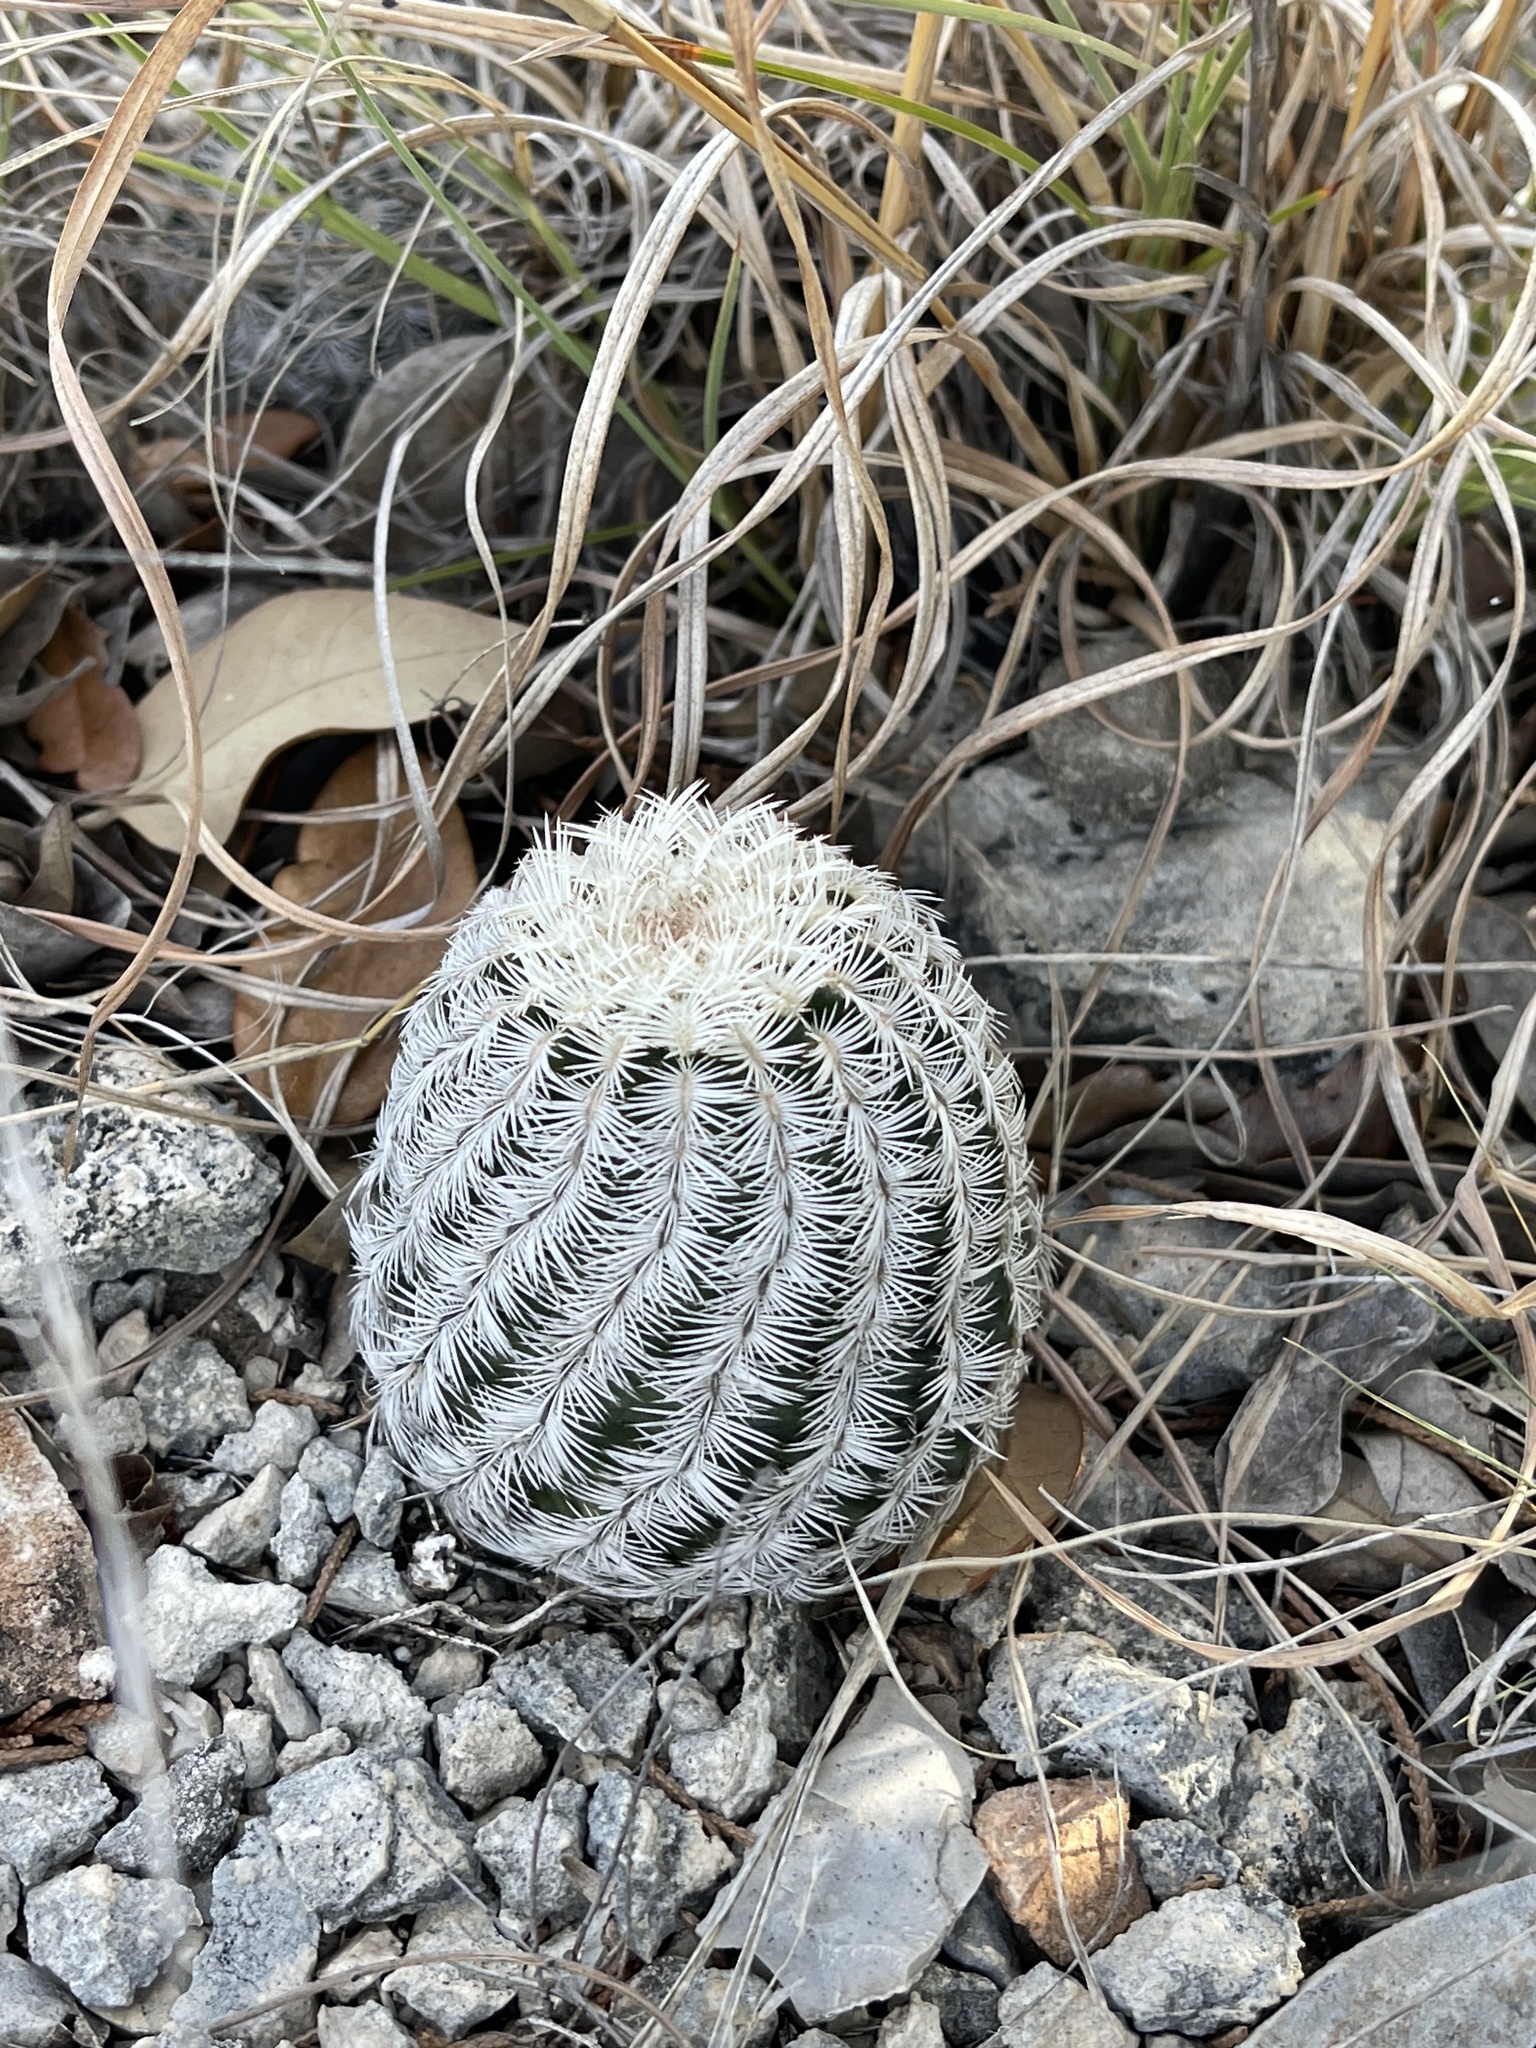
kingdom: Plantae
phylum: Tracheophyta
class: Magnoliopsida
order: Caryophyllales
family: Cactaceae
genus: Echinocereus
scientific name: Echinocereus reichenbachii
